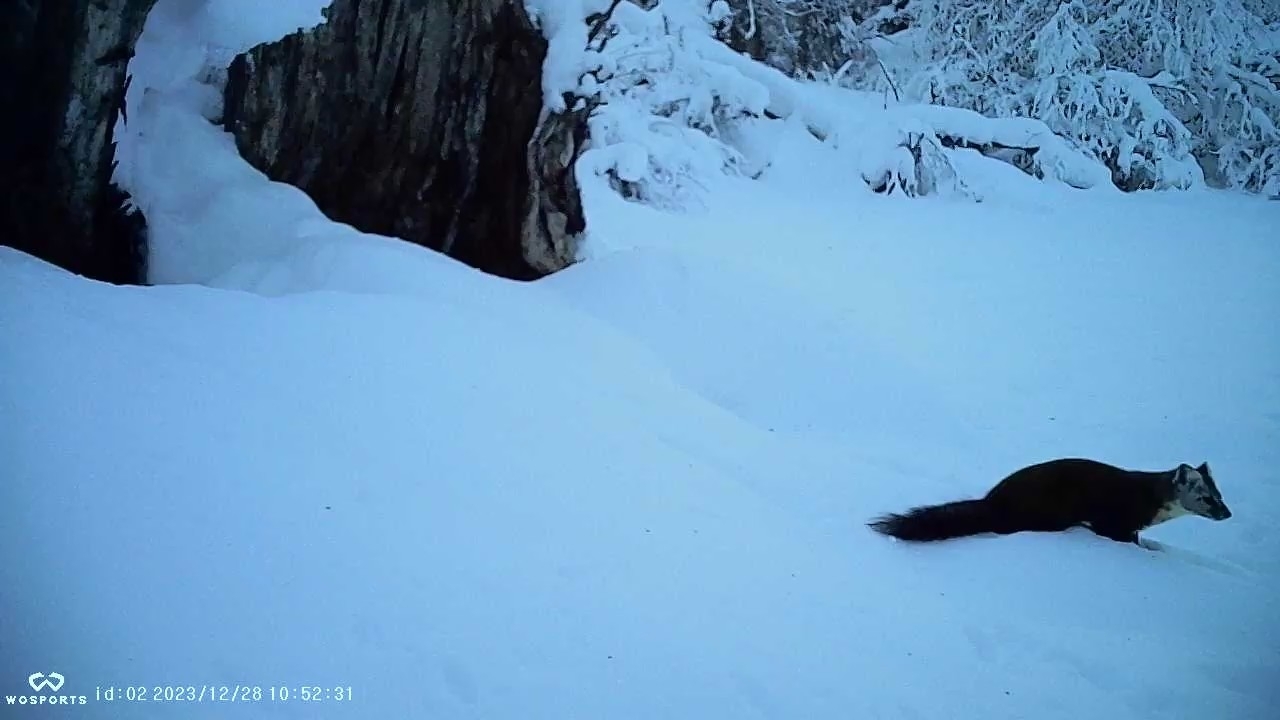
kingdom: Animalia
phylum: Chordata
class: Mammalia
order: Carnivora
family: Mustelidae
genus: Martes
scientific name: Martes americana
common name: American marten
